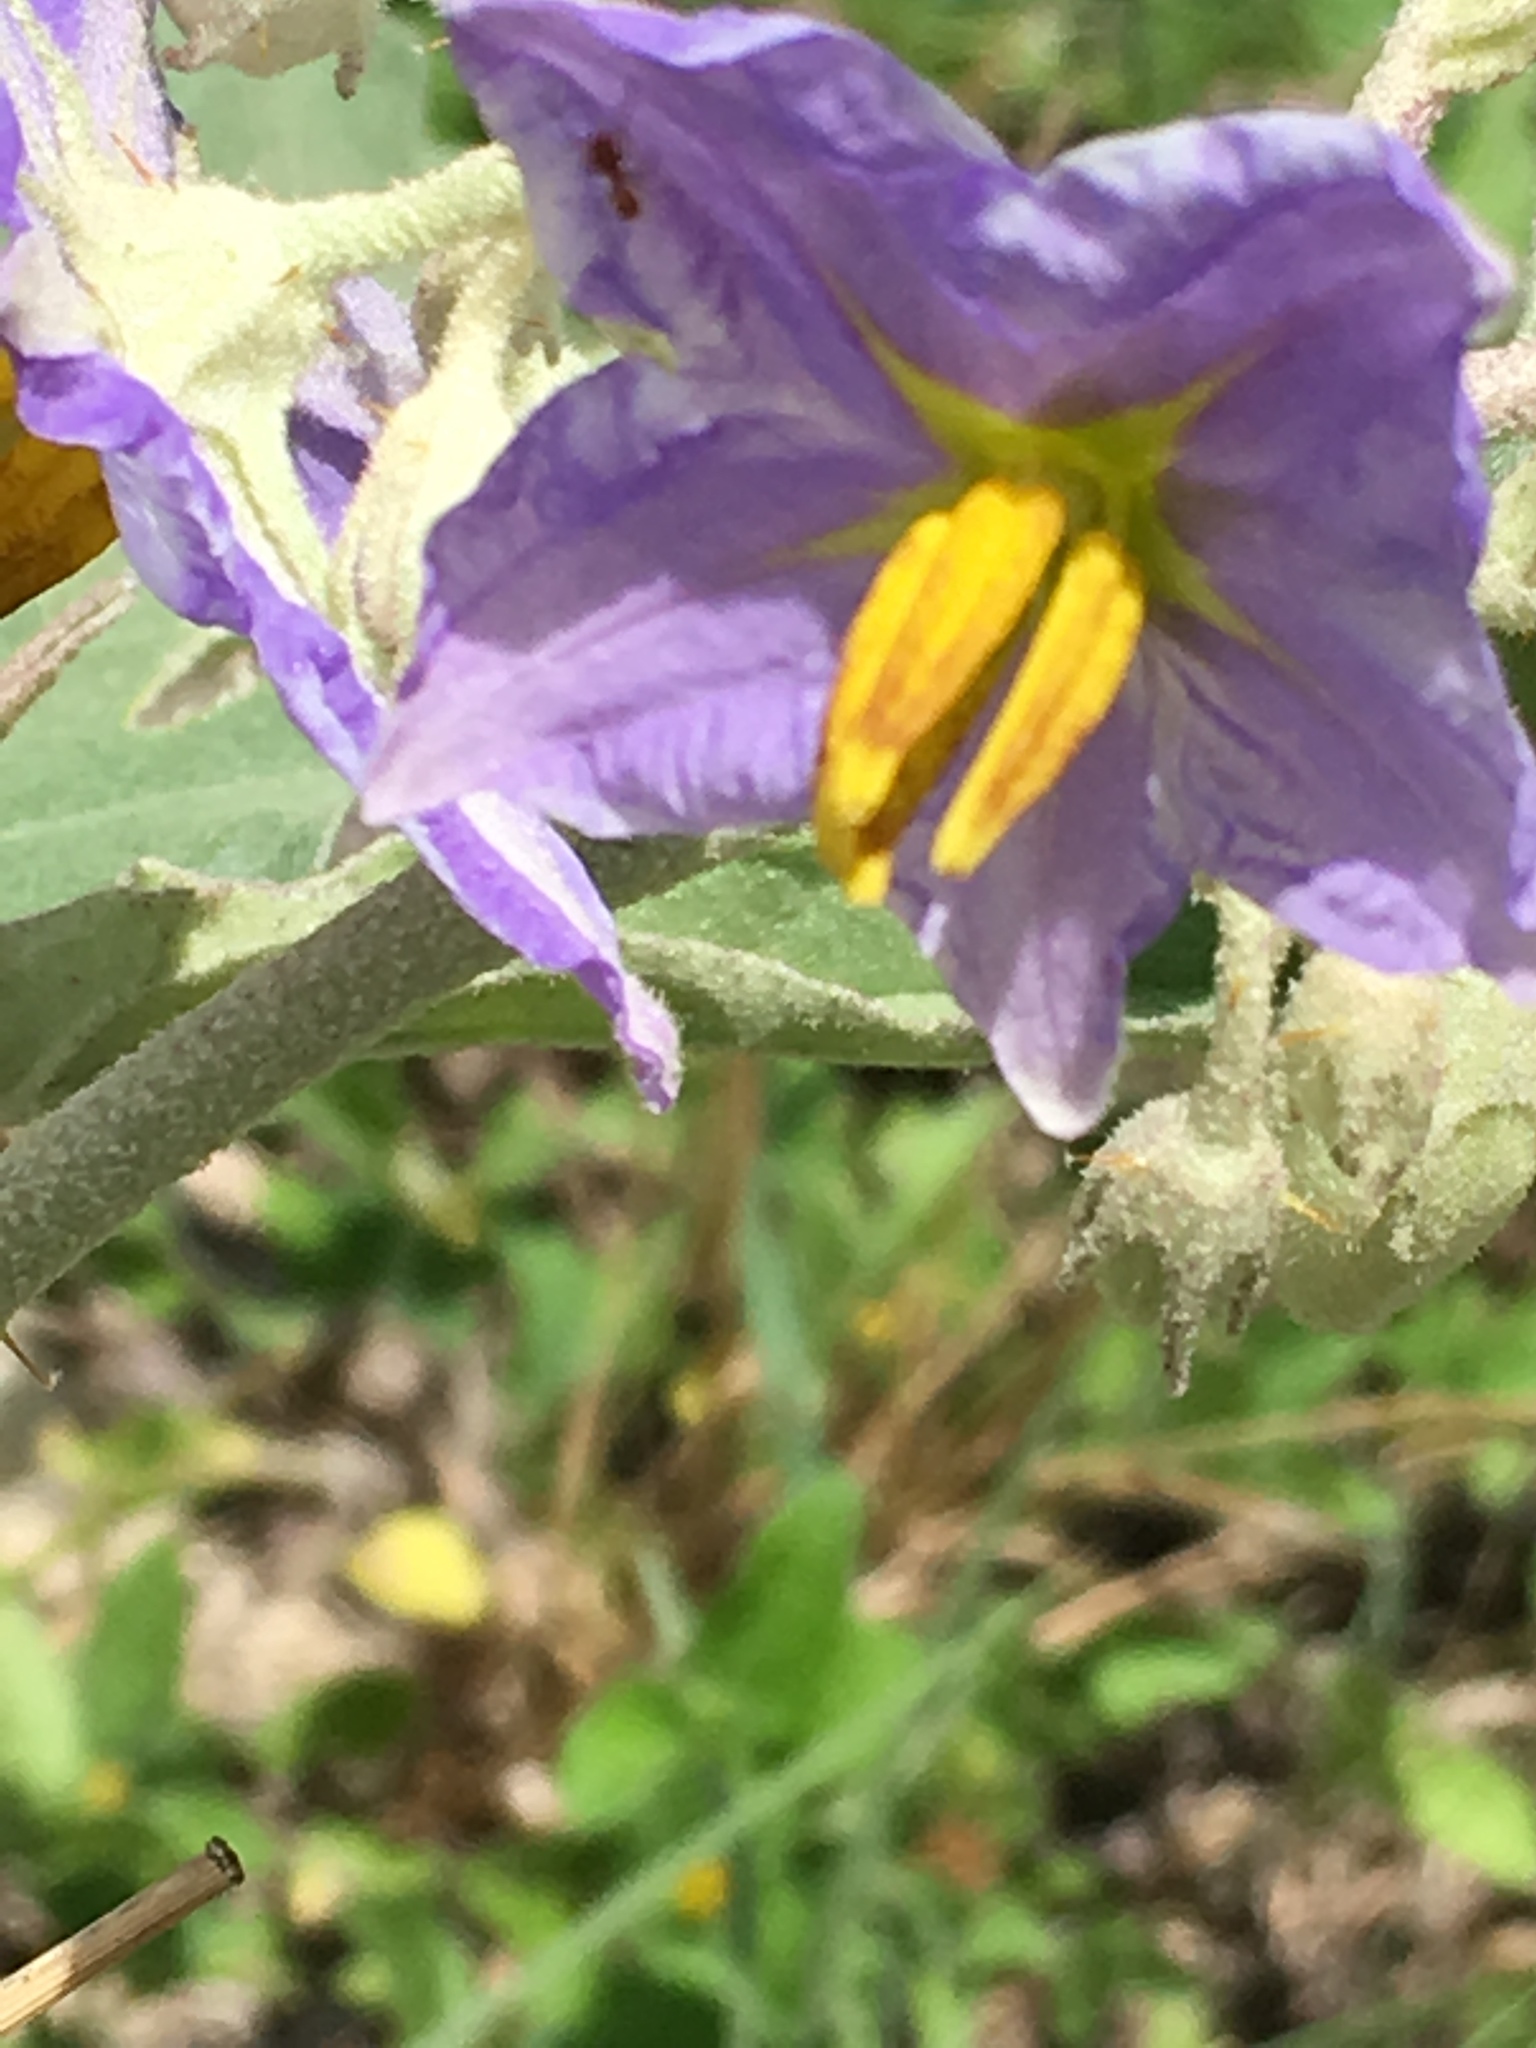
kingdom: Plantae
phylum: Tracheophyta
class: Magnoliopsida
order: Solanales
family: Solanaceae
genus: Solanum
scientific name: Solanum elaeagnifolium
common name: Silverleaf nightshade
